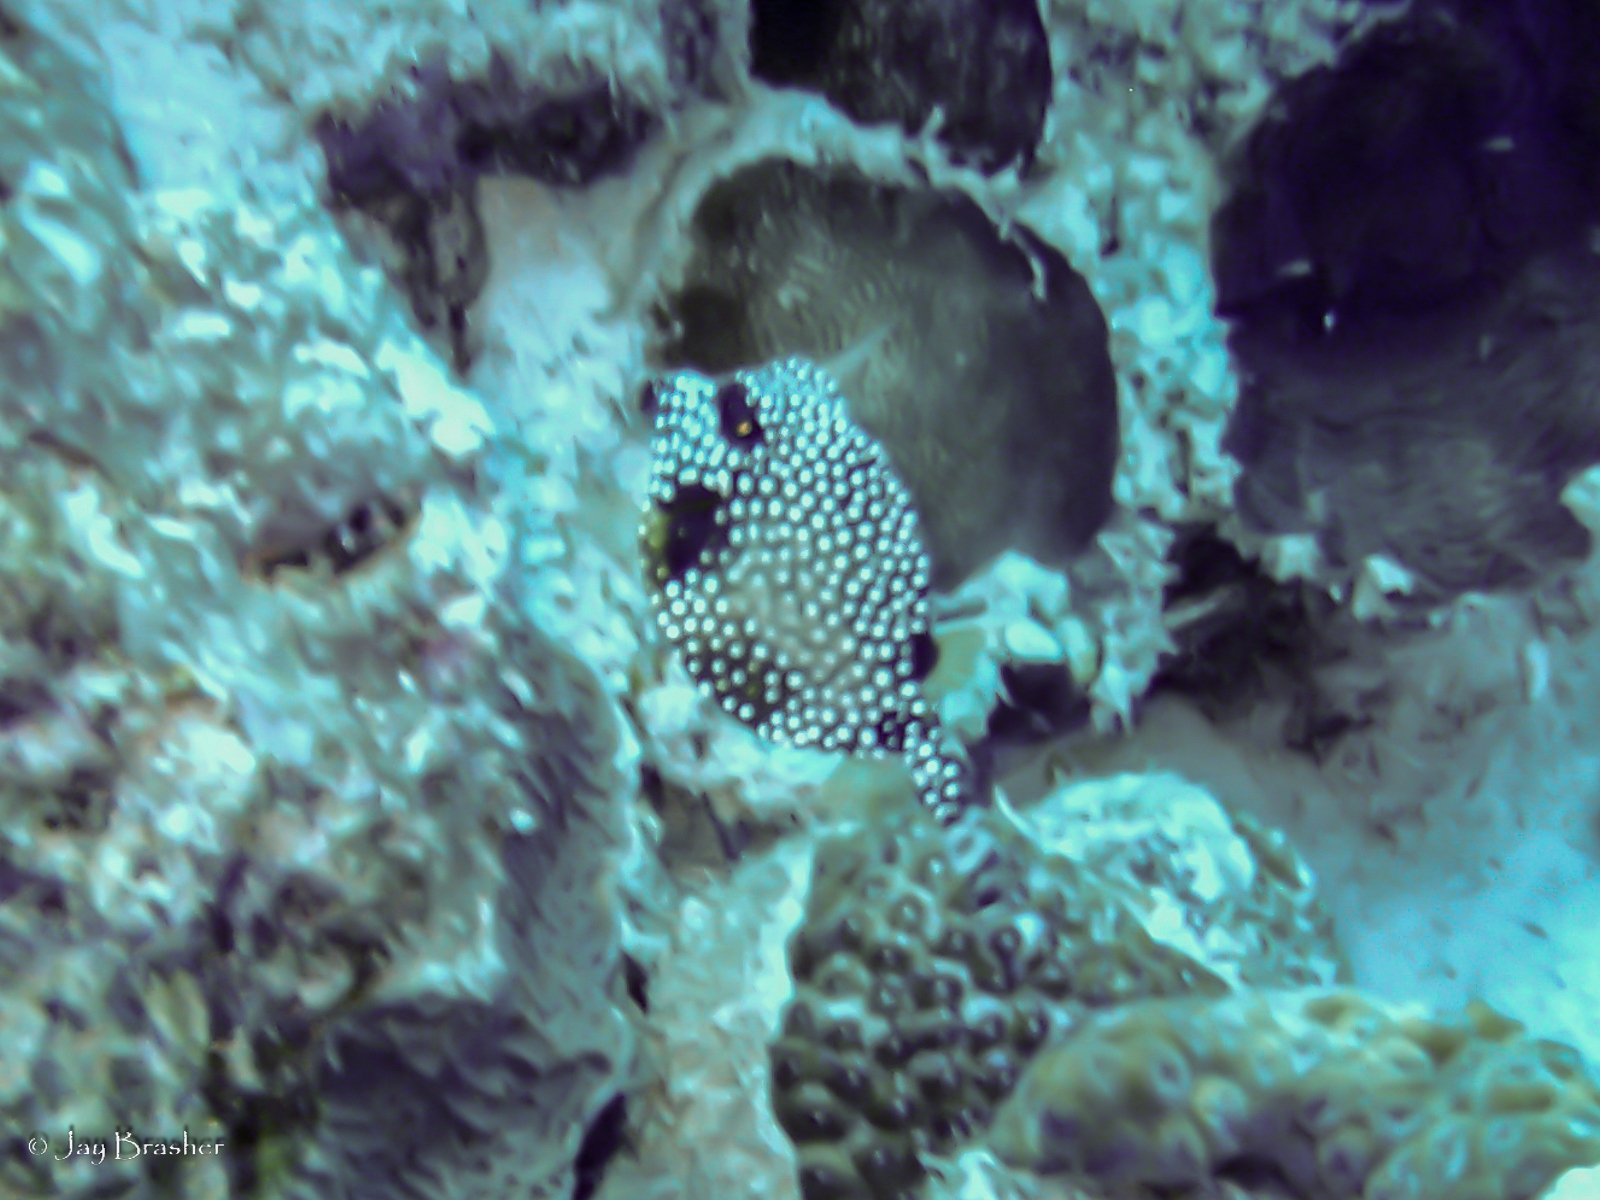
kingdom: Animalia
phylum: Chordata
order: Tetraodontiformes
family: Ostraciidae
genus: Lactophrys
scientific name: Lactophrys triqueter
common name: Smooth trunkfish
